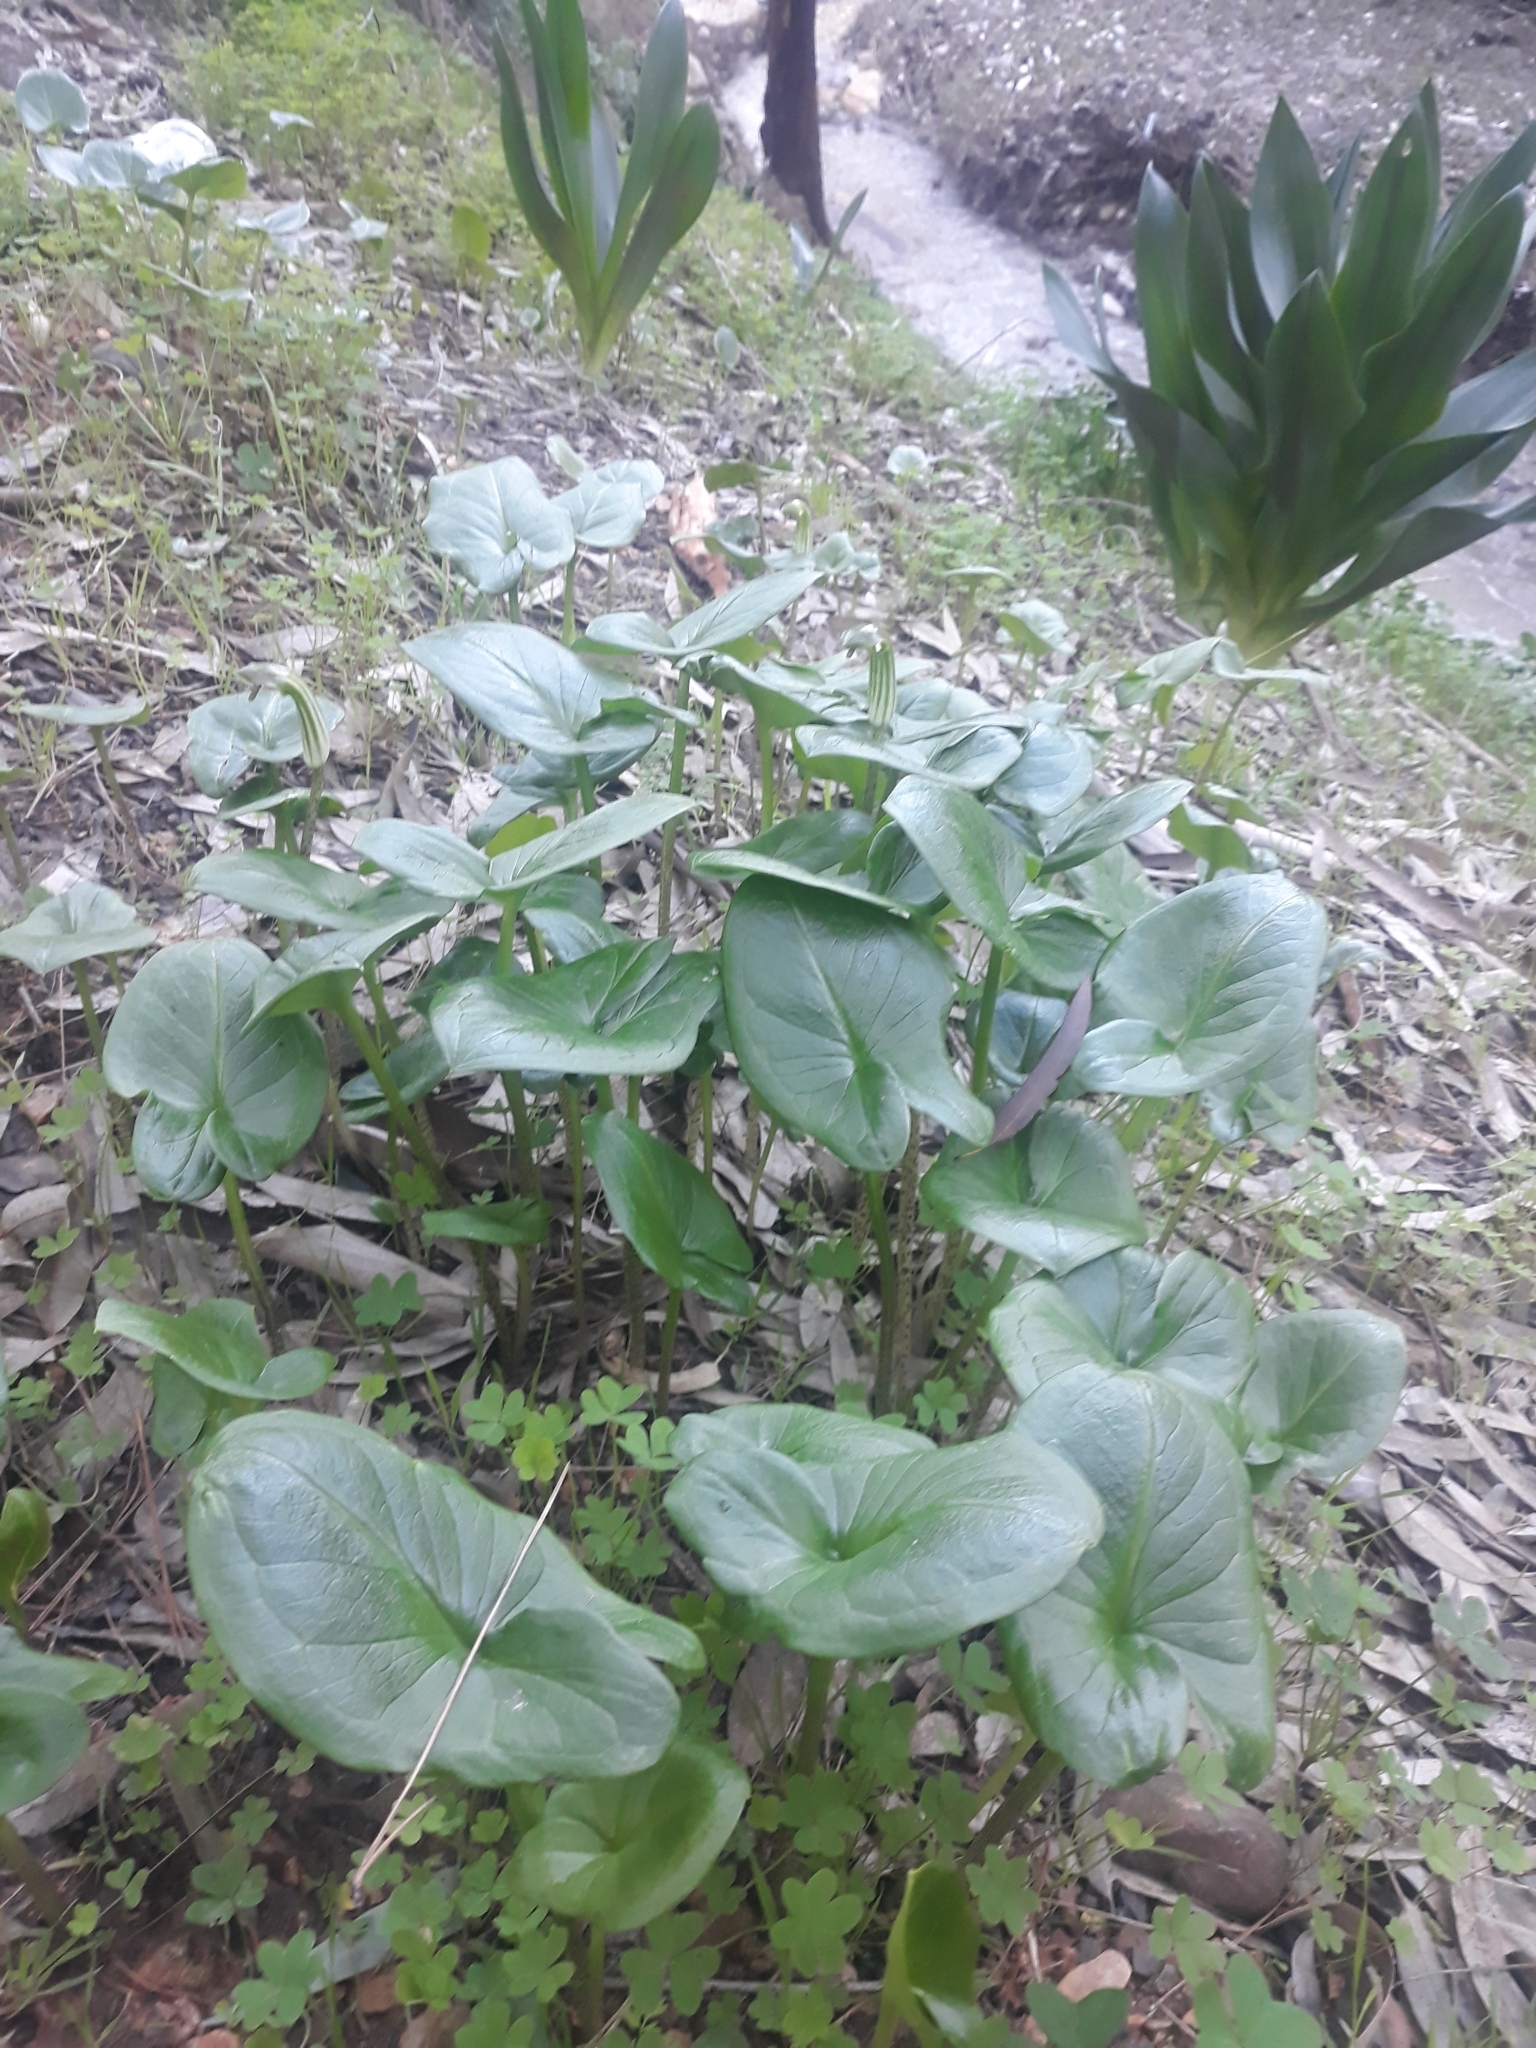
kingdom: Plantae
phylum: Tracheophyta
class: Liliopsida
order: Alismatales
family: Araceae
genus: Arisarum
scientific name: Arisarum vulgare
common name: Common arisarum
